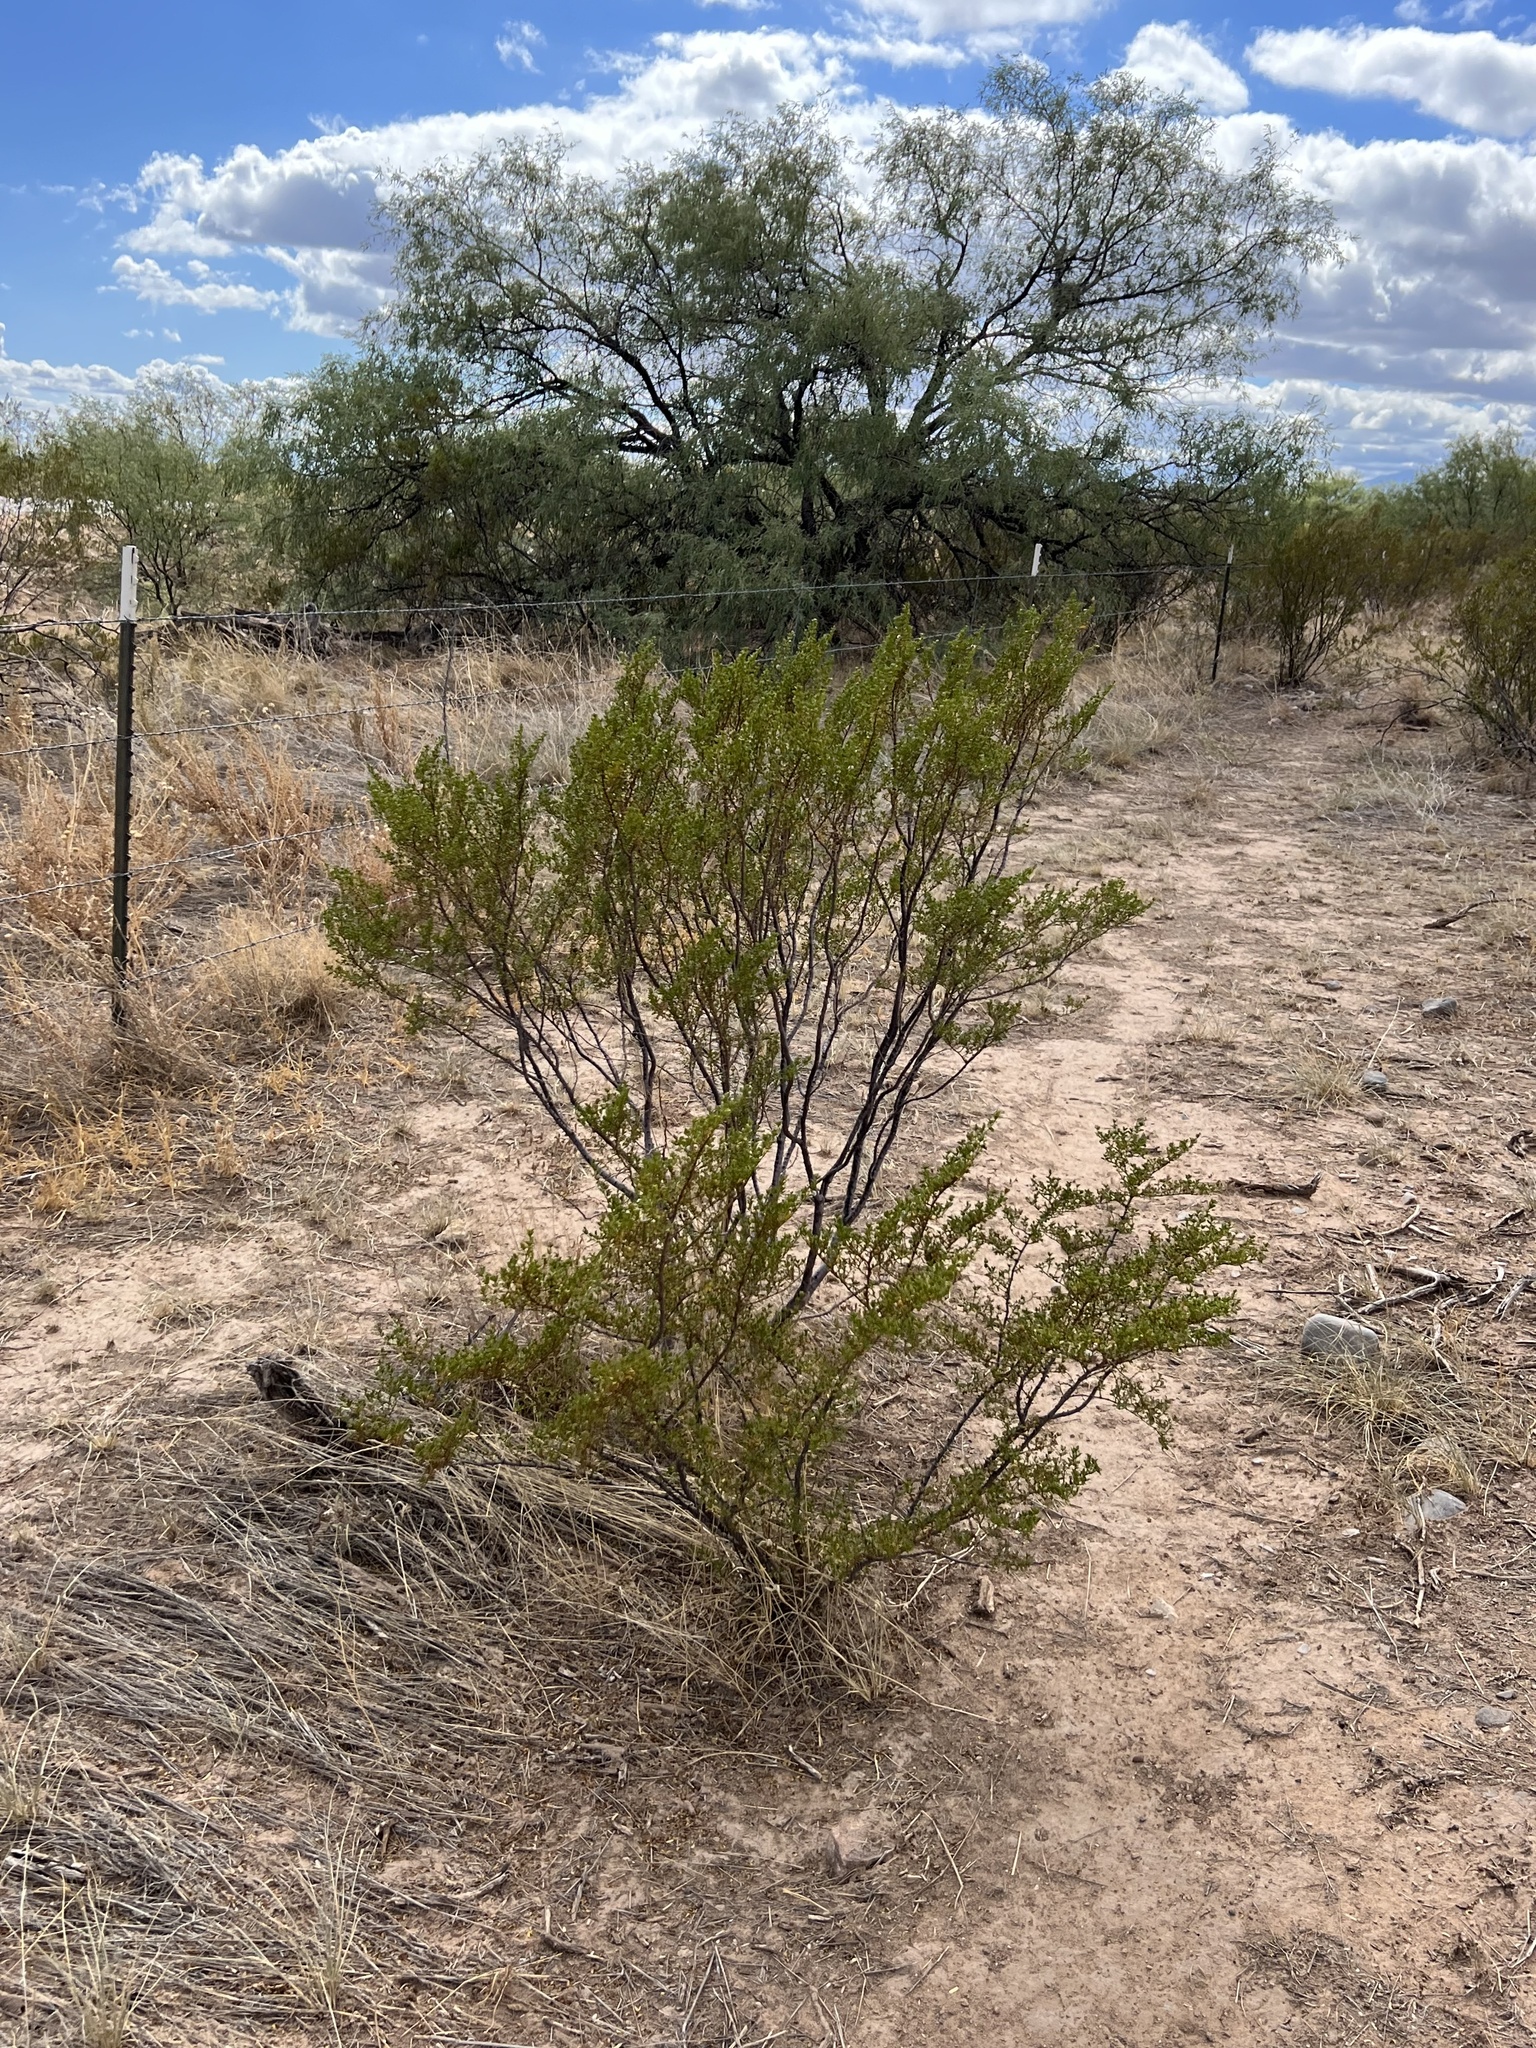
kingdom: Plantae
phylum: Tracheophyta
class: Magnoliopsida
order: Zygophyllales
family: Zygophyllaceae
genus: Larrea
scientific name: Larrea tridentata
